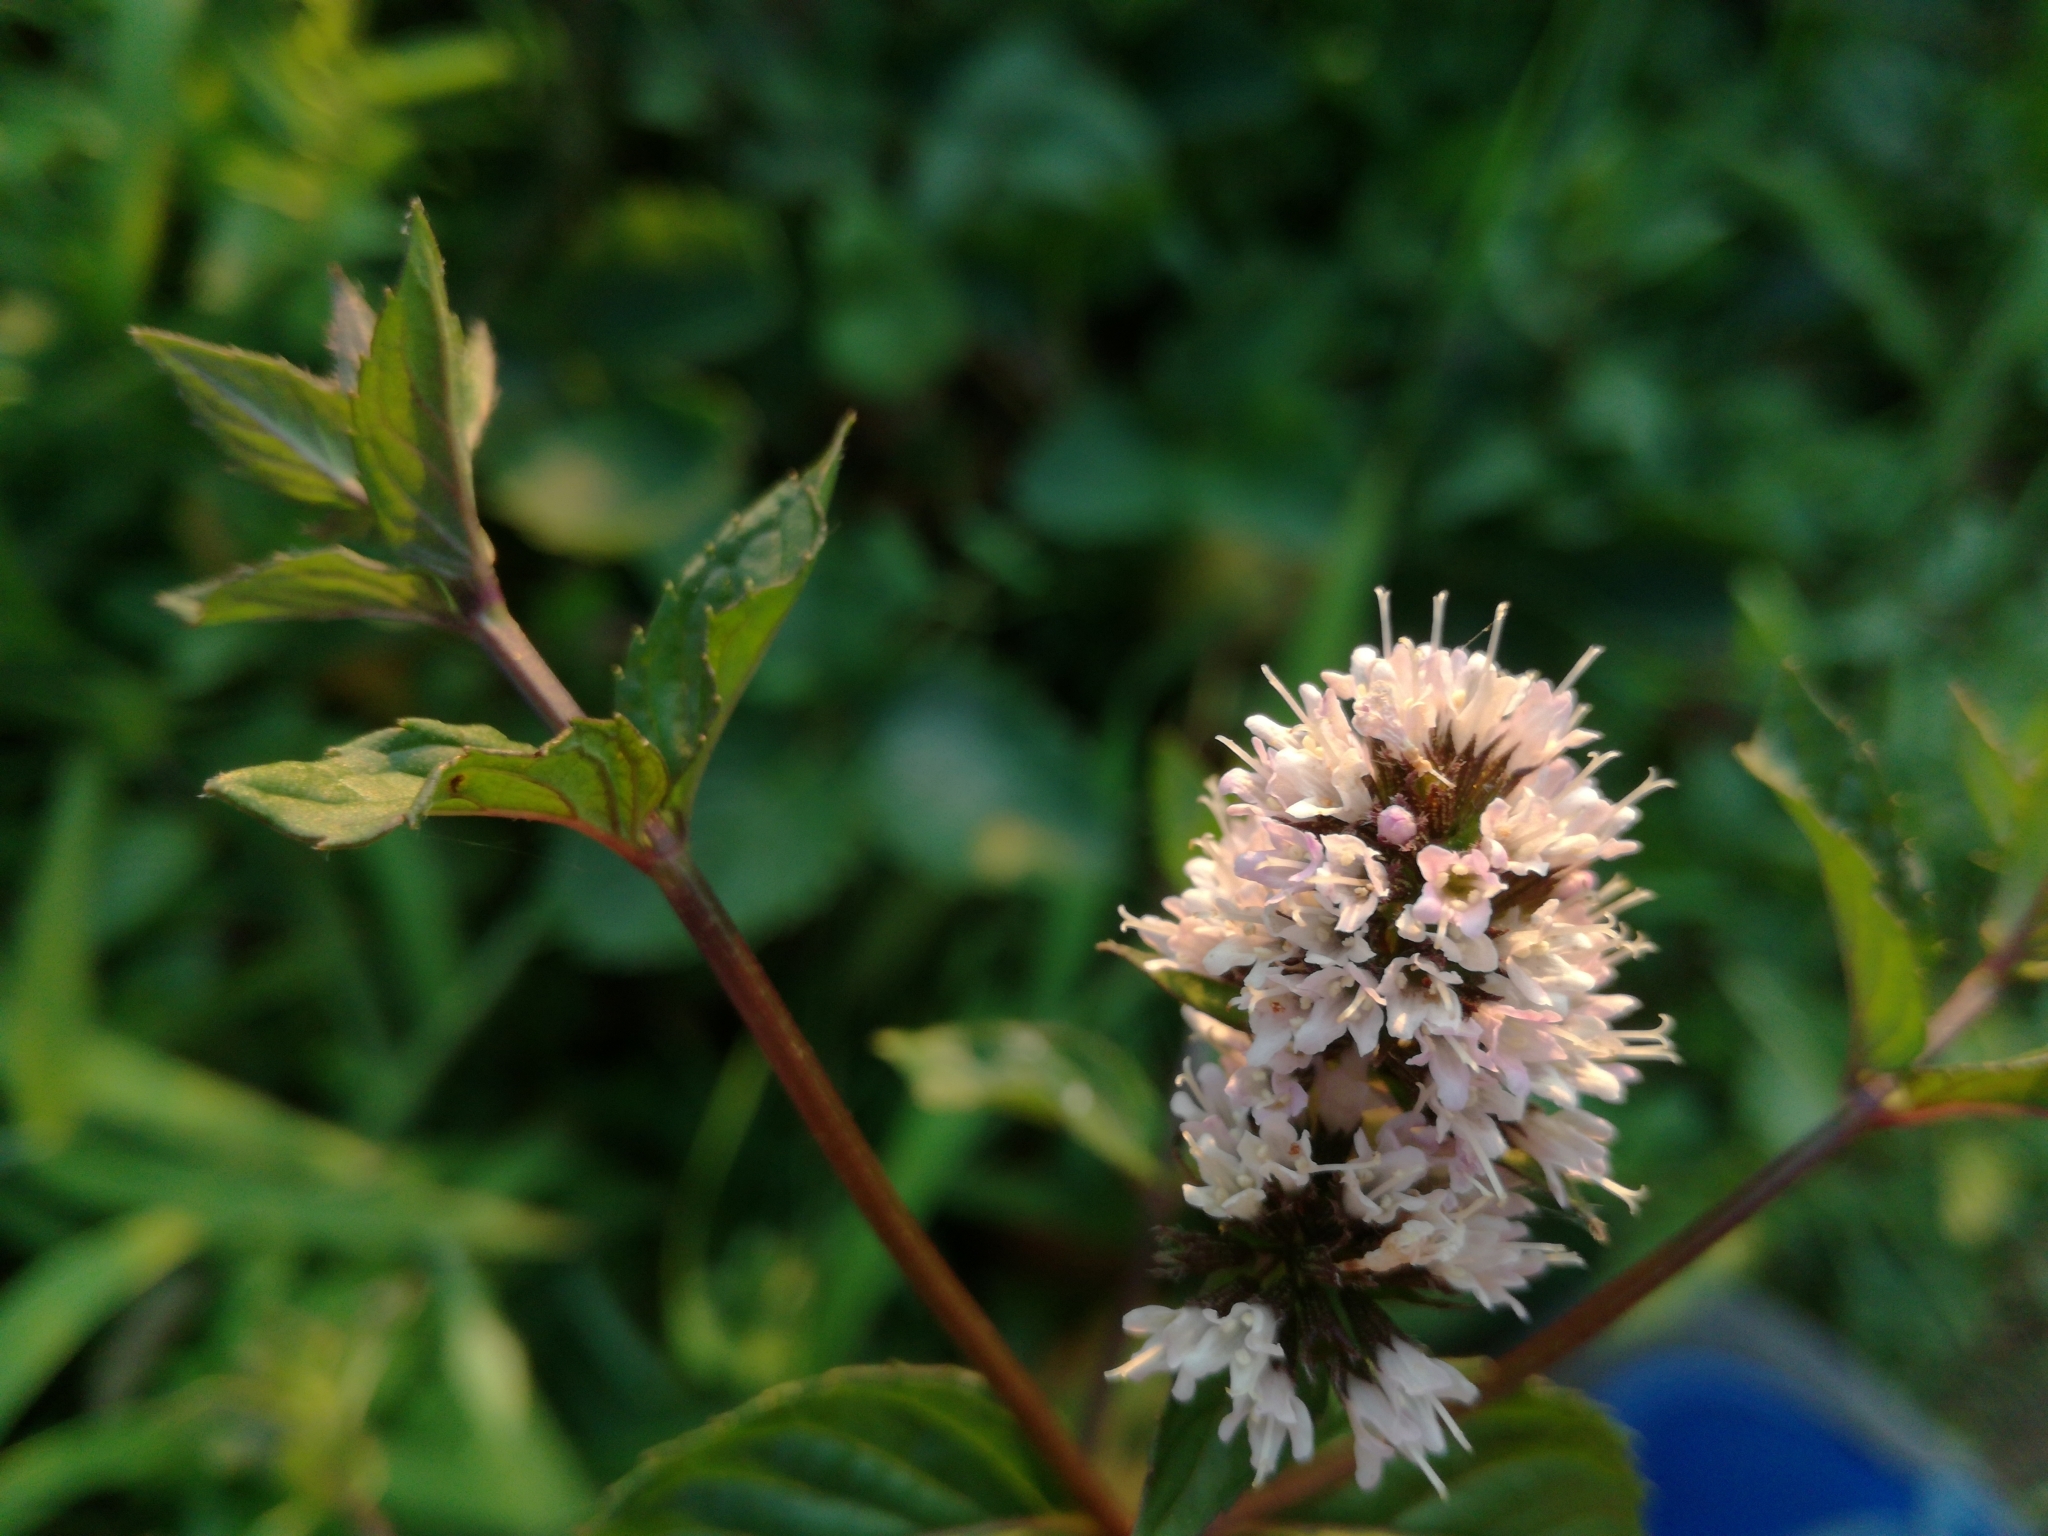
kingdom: Plantae
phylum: Tracheophyta
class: Magnoliopsida
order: Lamiales
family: Lamiaceae
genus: Mentha
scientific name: Mentha aquatica
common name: Water mint
